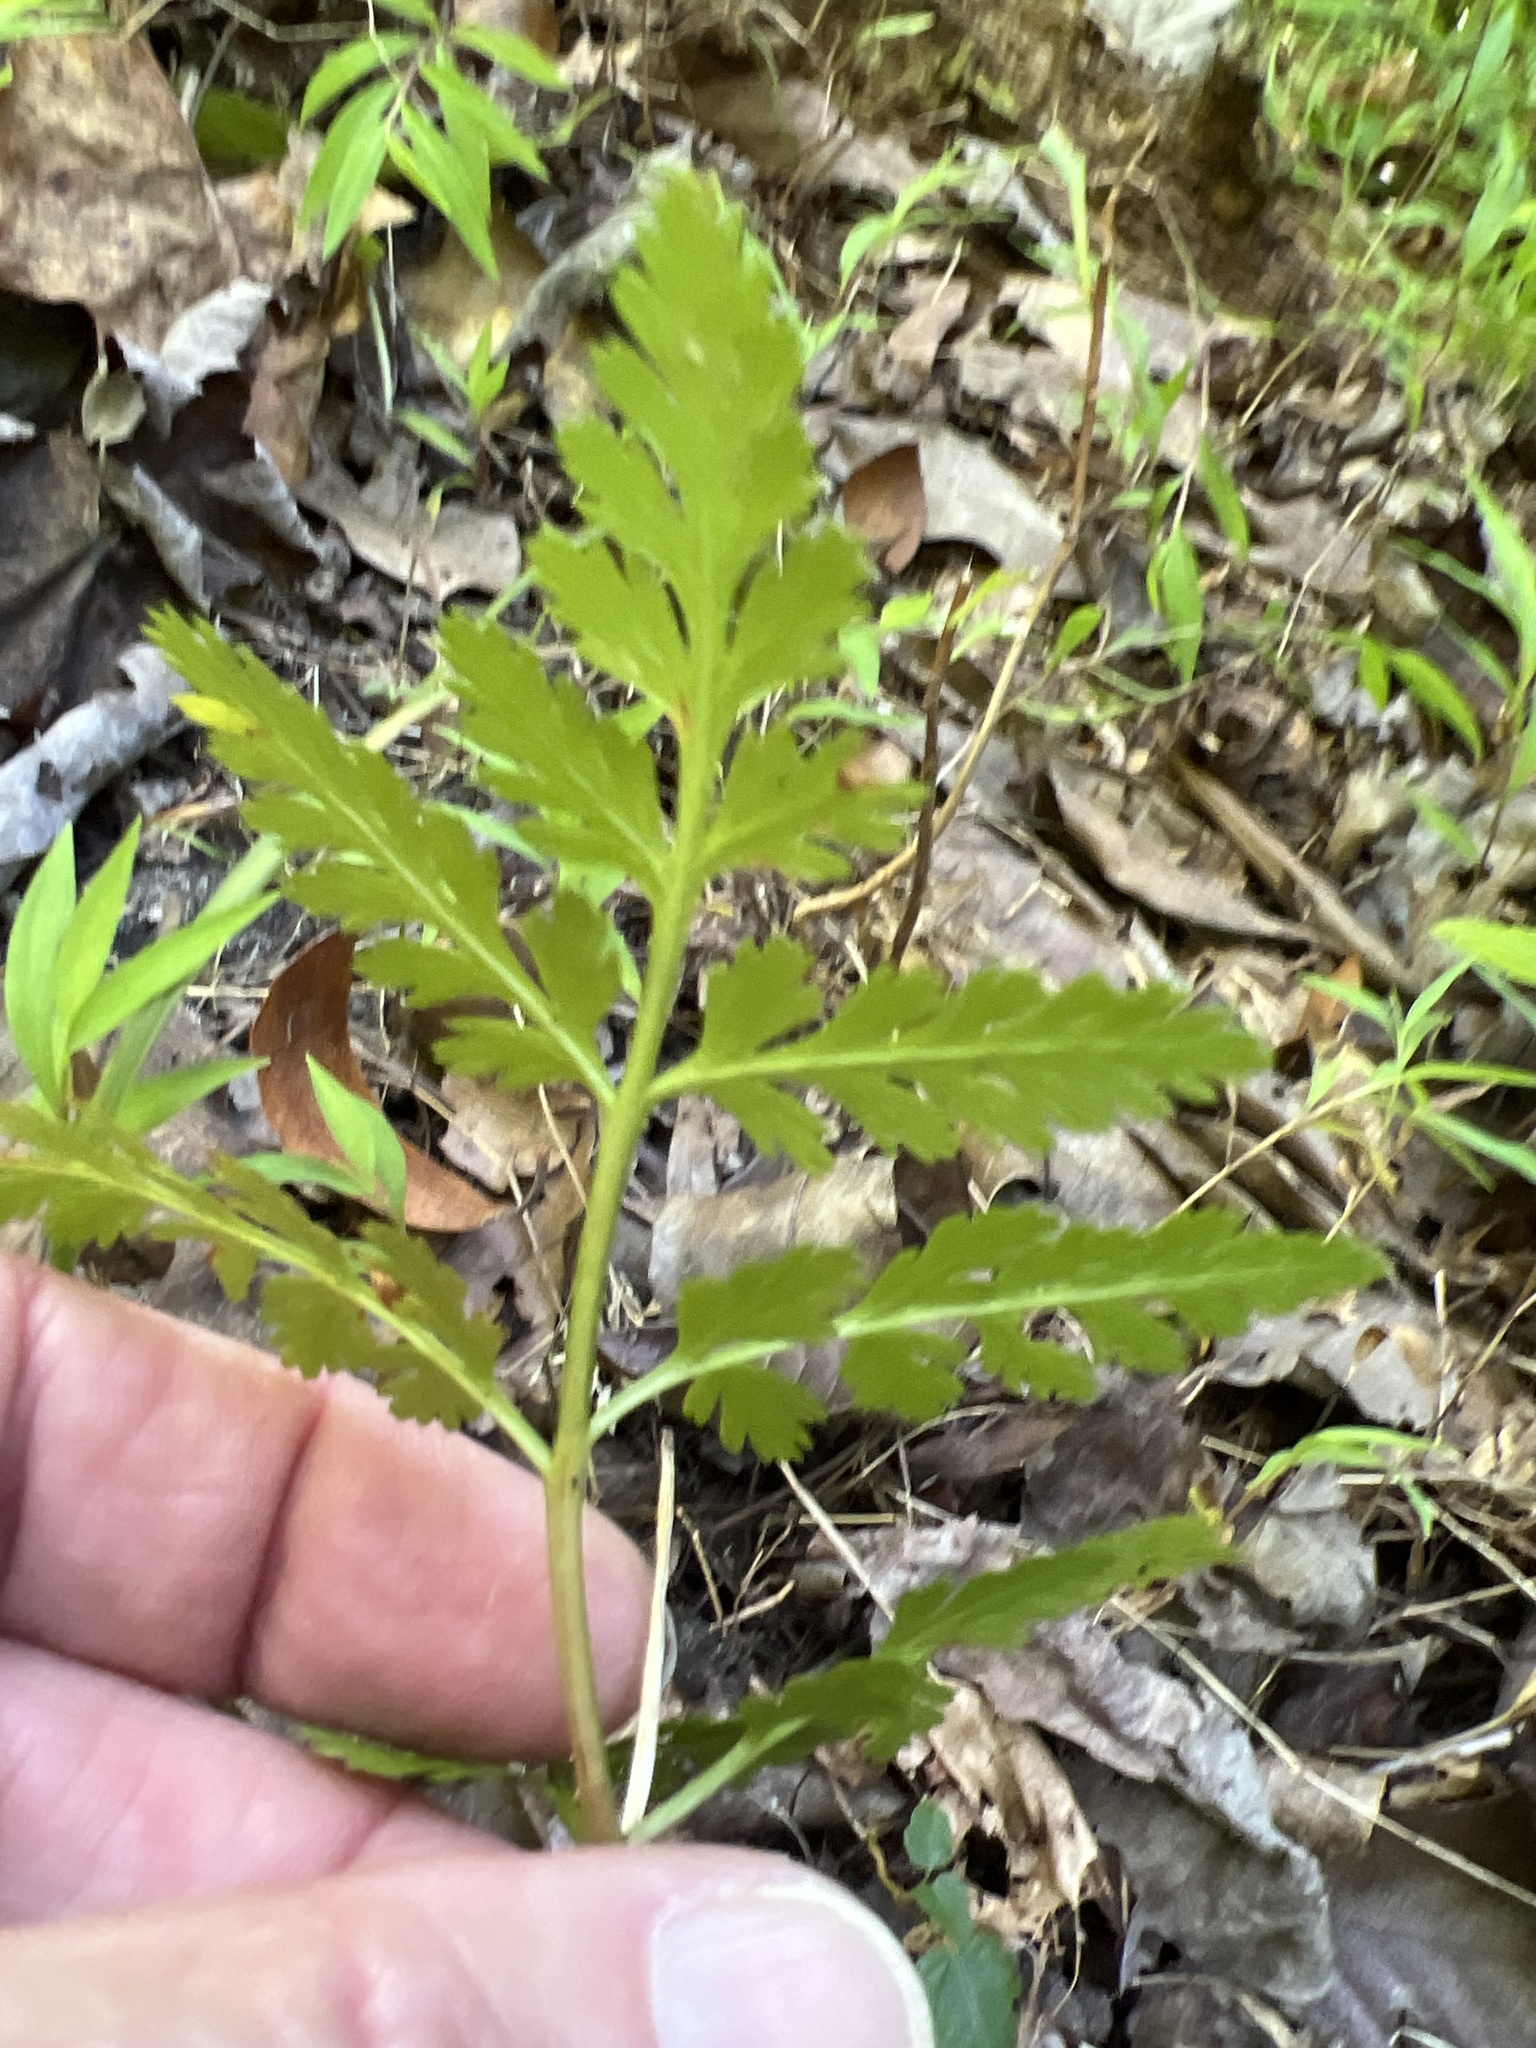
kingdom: Plantae
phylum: Tracheophyta
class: Polypodiopsida
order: Ophioglossales
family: Ophioglossaceae
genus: Botrypus
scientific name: Botrypus virginianus
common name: Common grapefern
